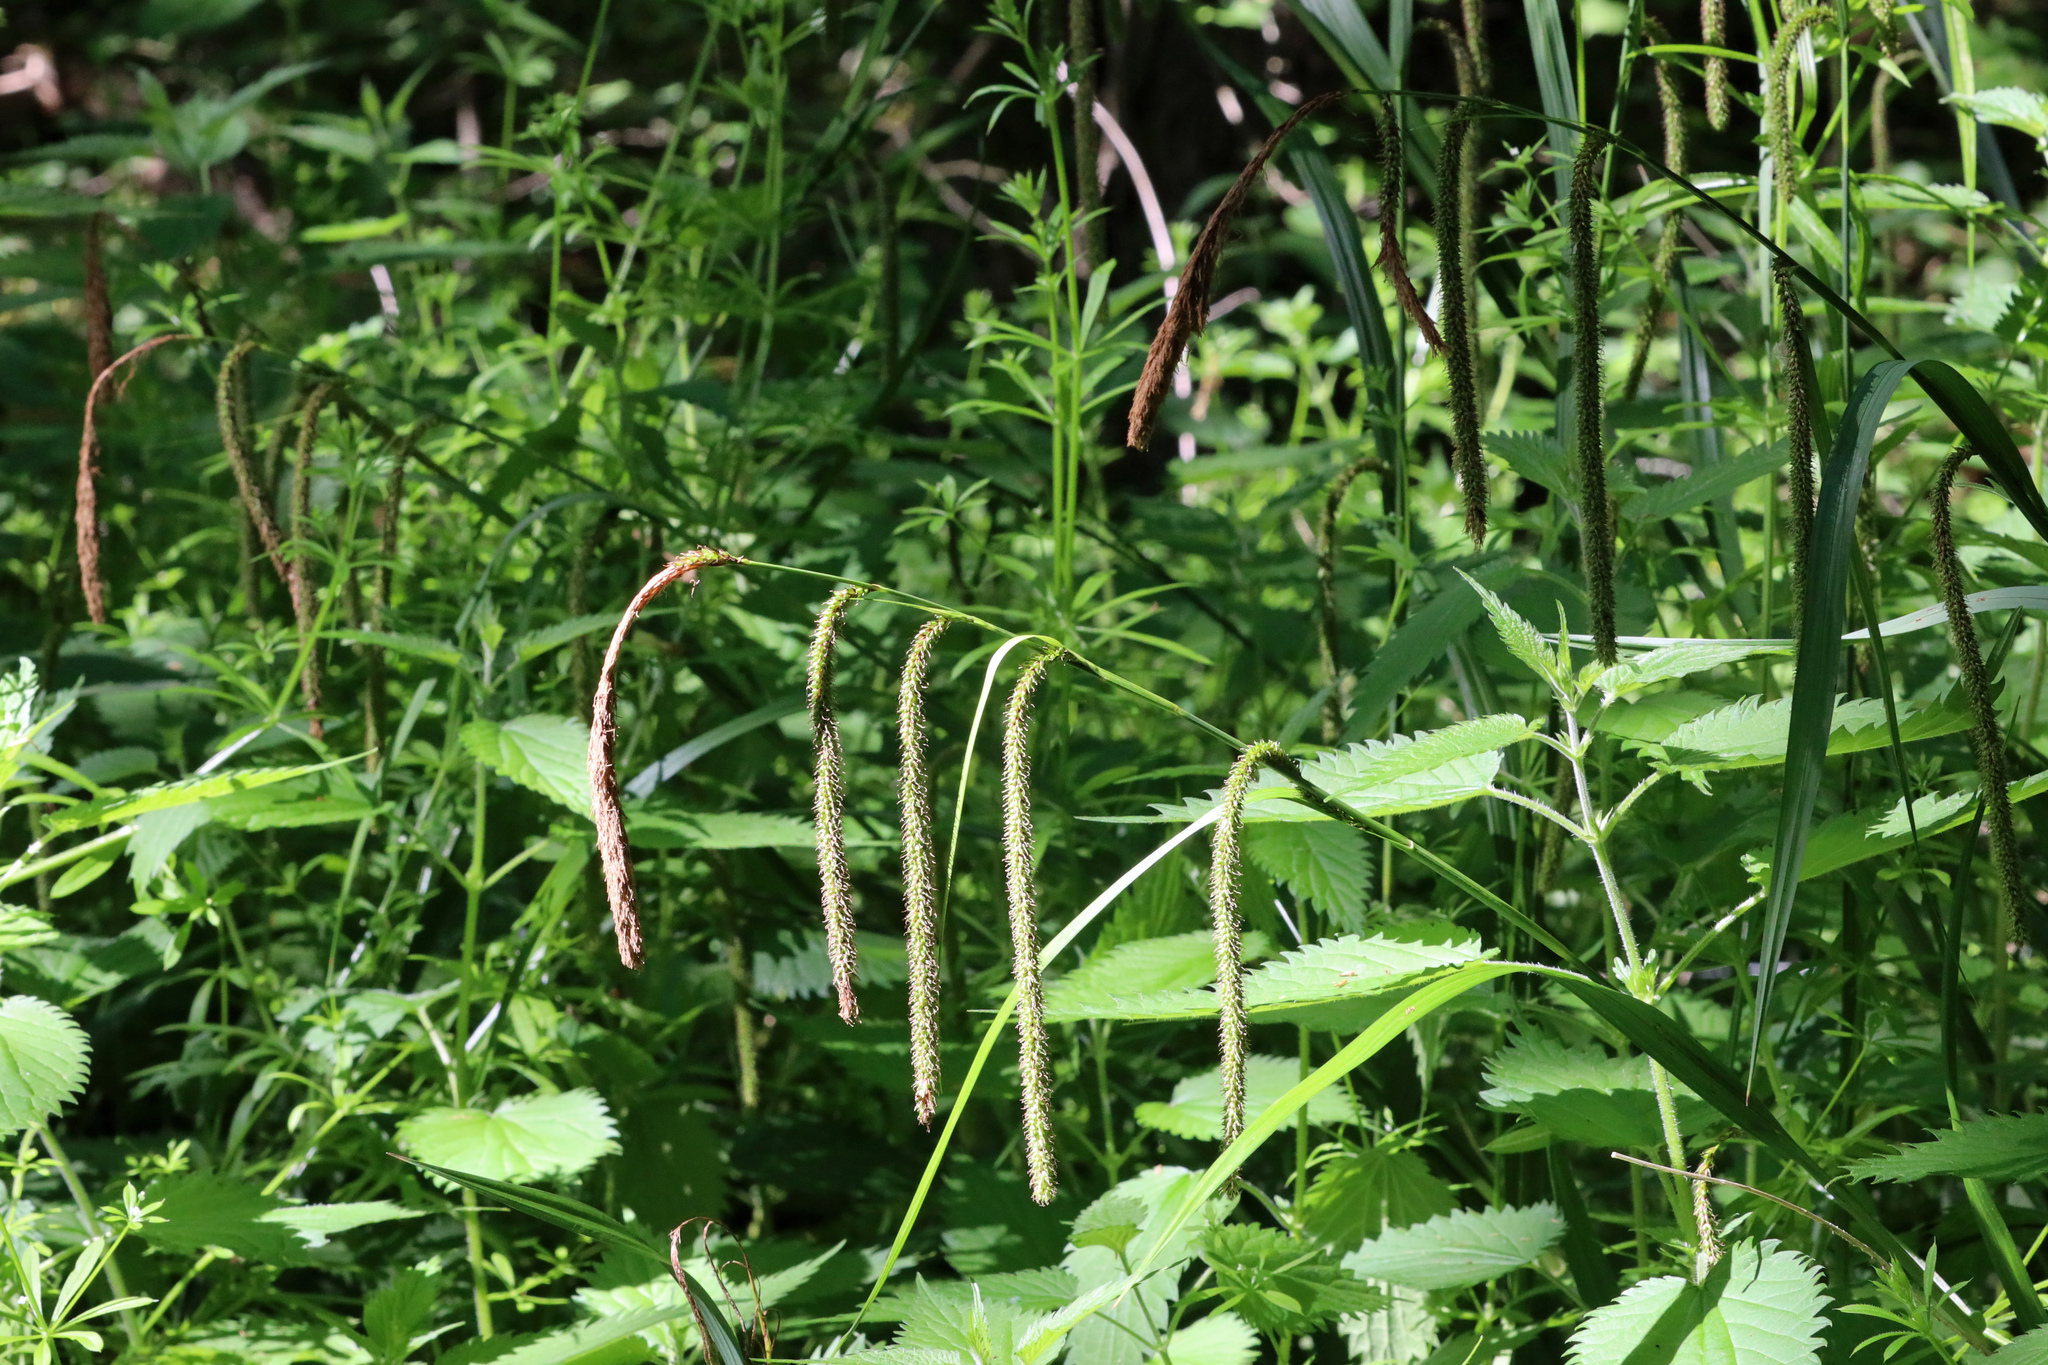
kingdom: Plantae
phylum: Tracheophyta
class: Liliopsida
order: Poales
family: Cyperaceae
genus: Carex
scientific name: Carex pendula
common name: Pendulous sedge
